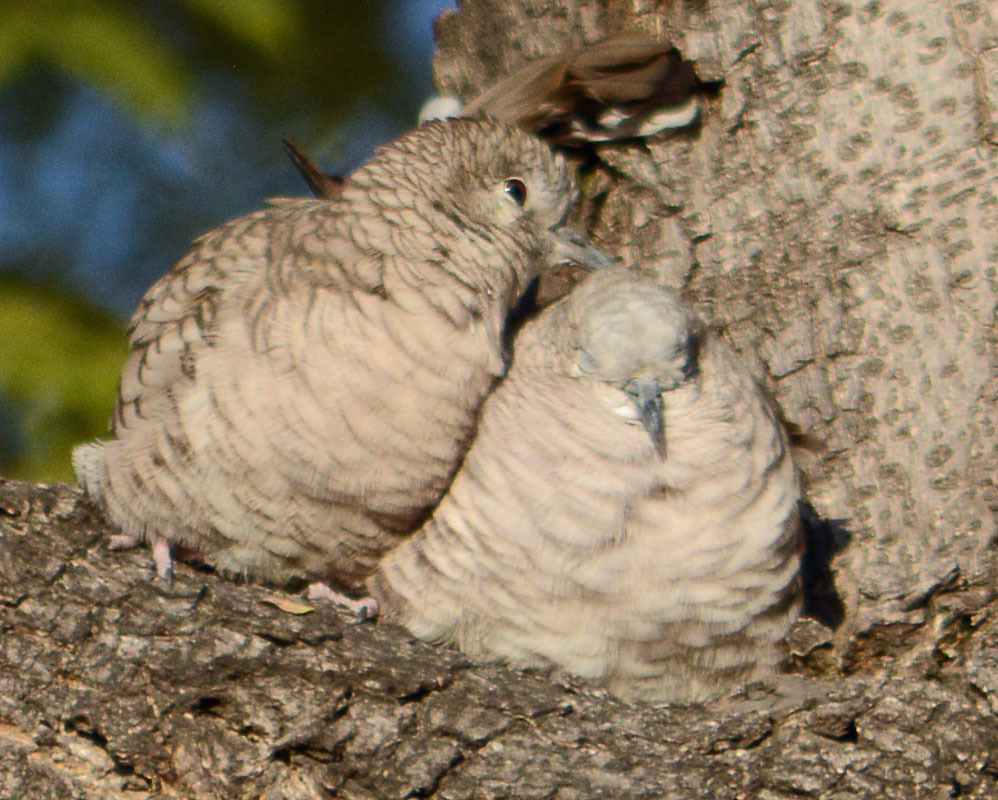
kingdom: Animalia
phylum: Chordata
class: Aves
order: Columbiformes
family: Columbidae
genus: Columbina
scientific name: Columbina inca
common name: Inca dove
